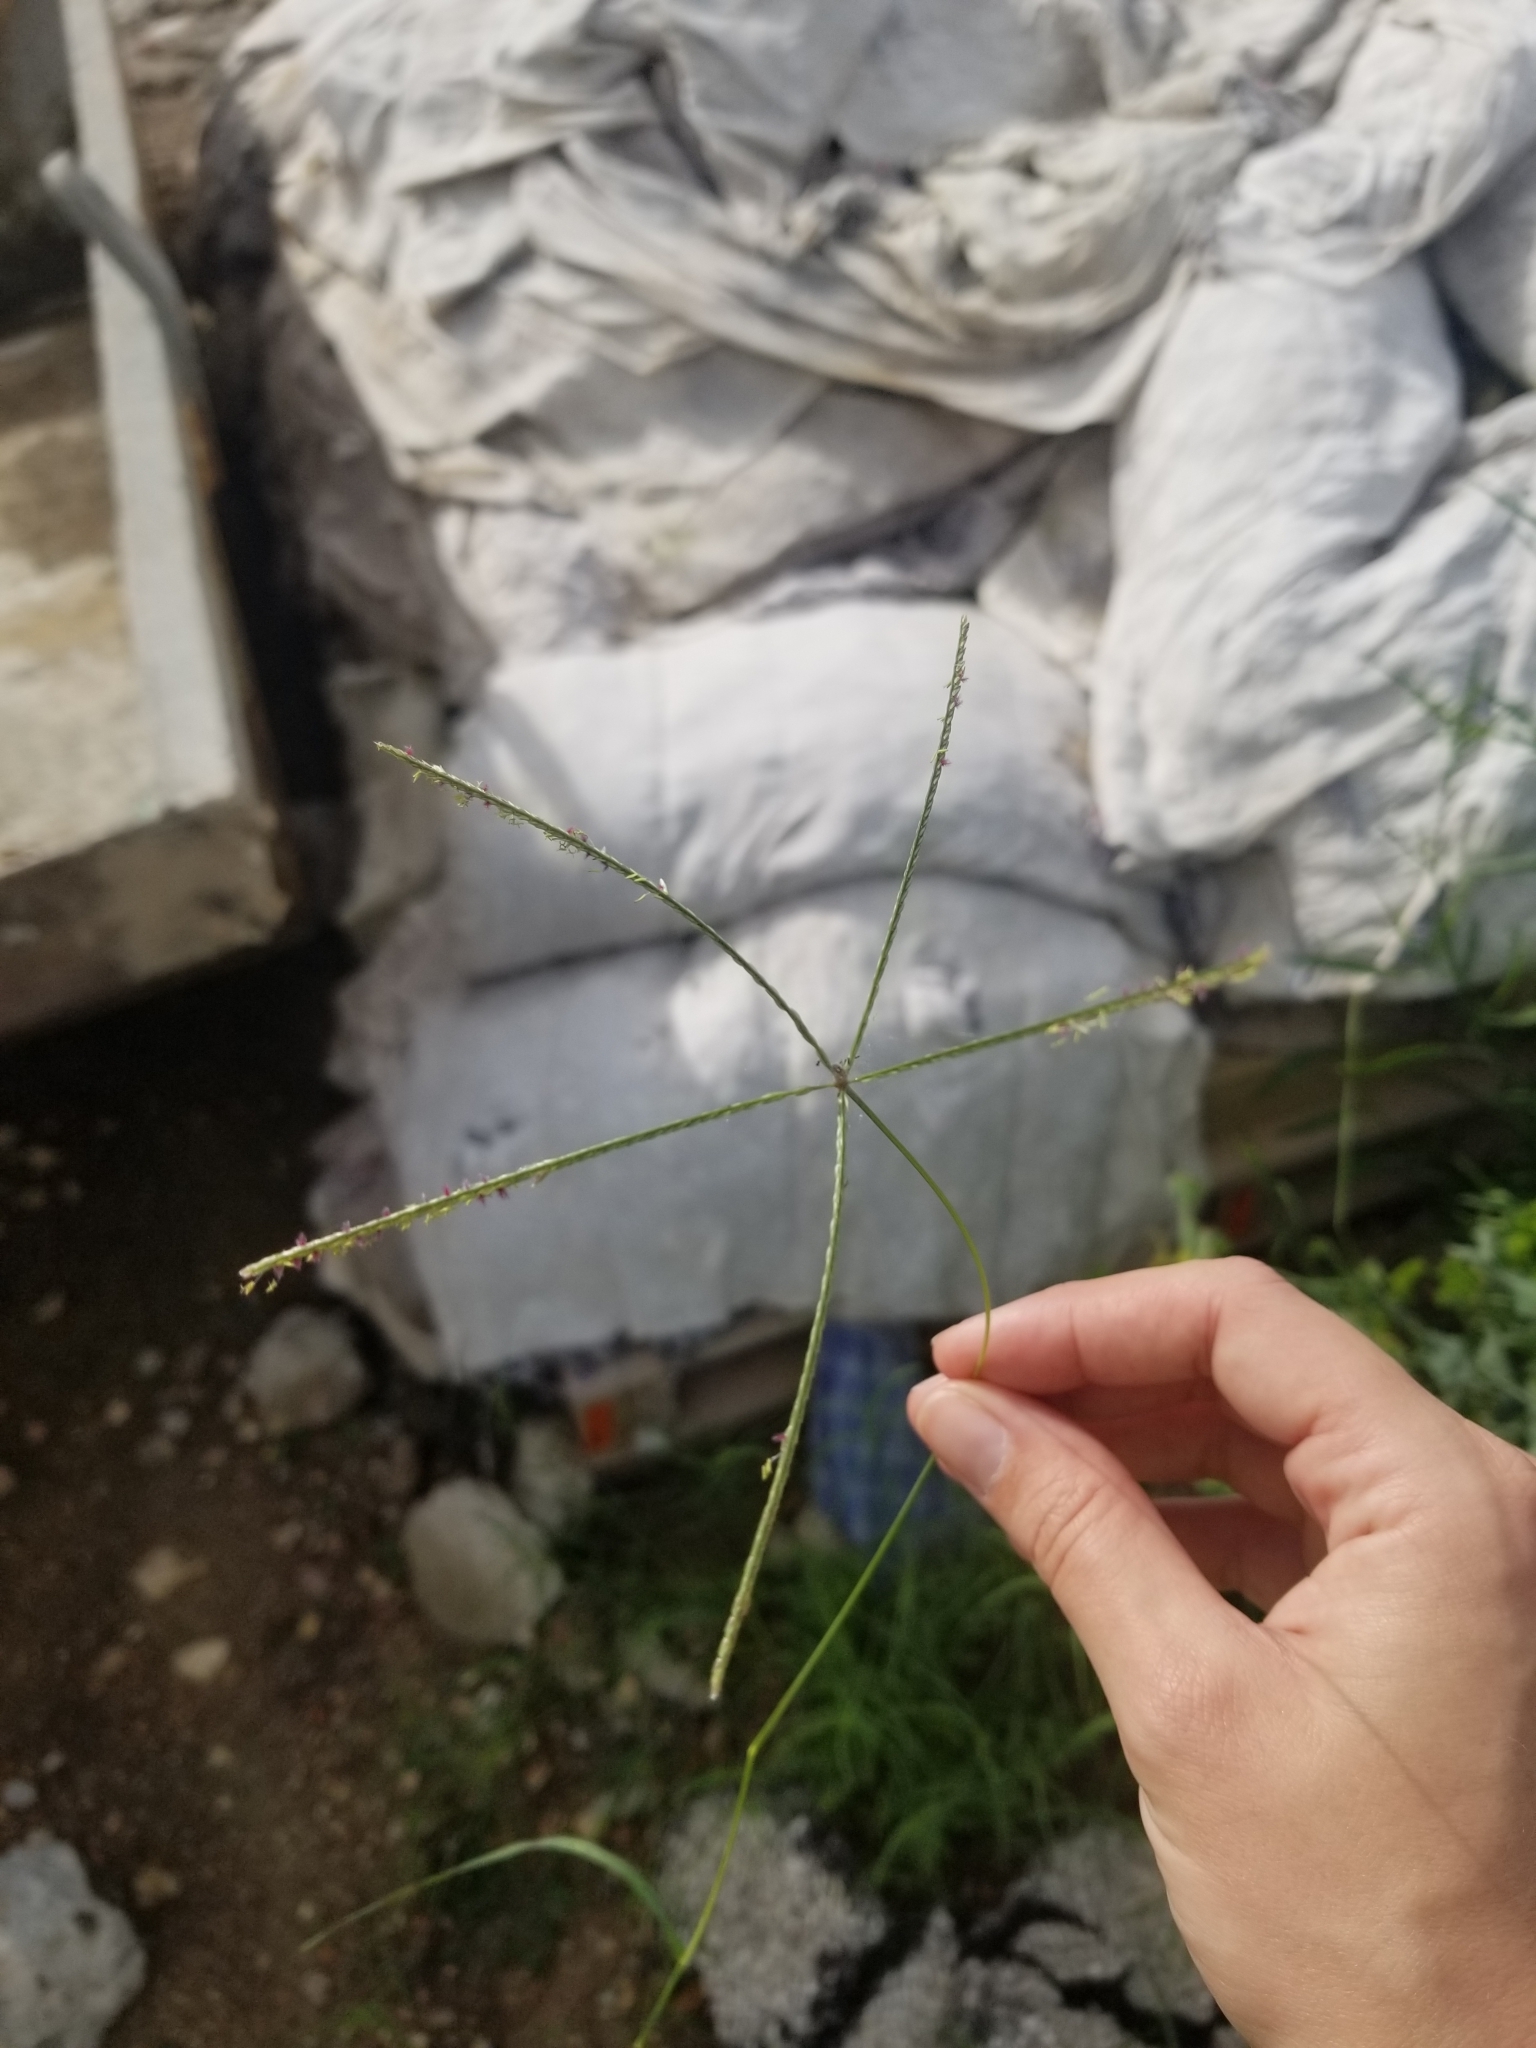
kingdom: Plantae
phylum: Tracheophyta
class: Liliopsida
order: Poales
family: Poaceae
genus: Cynodon
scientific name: Cynodon dactylon
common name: Bermuda grass
